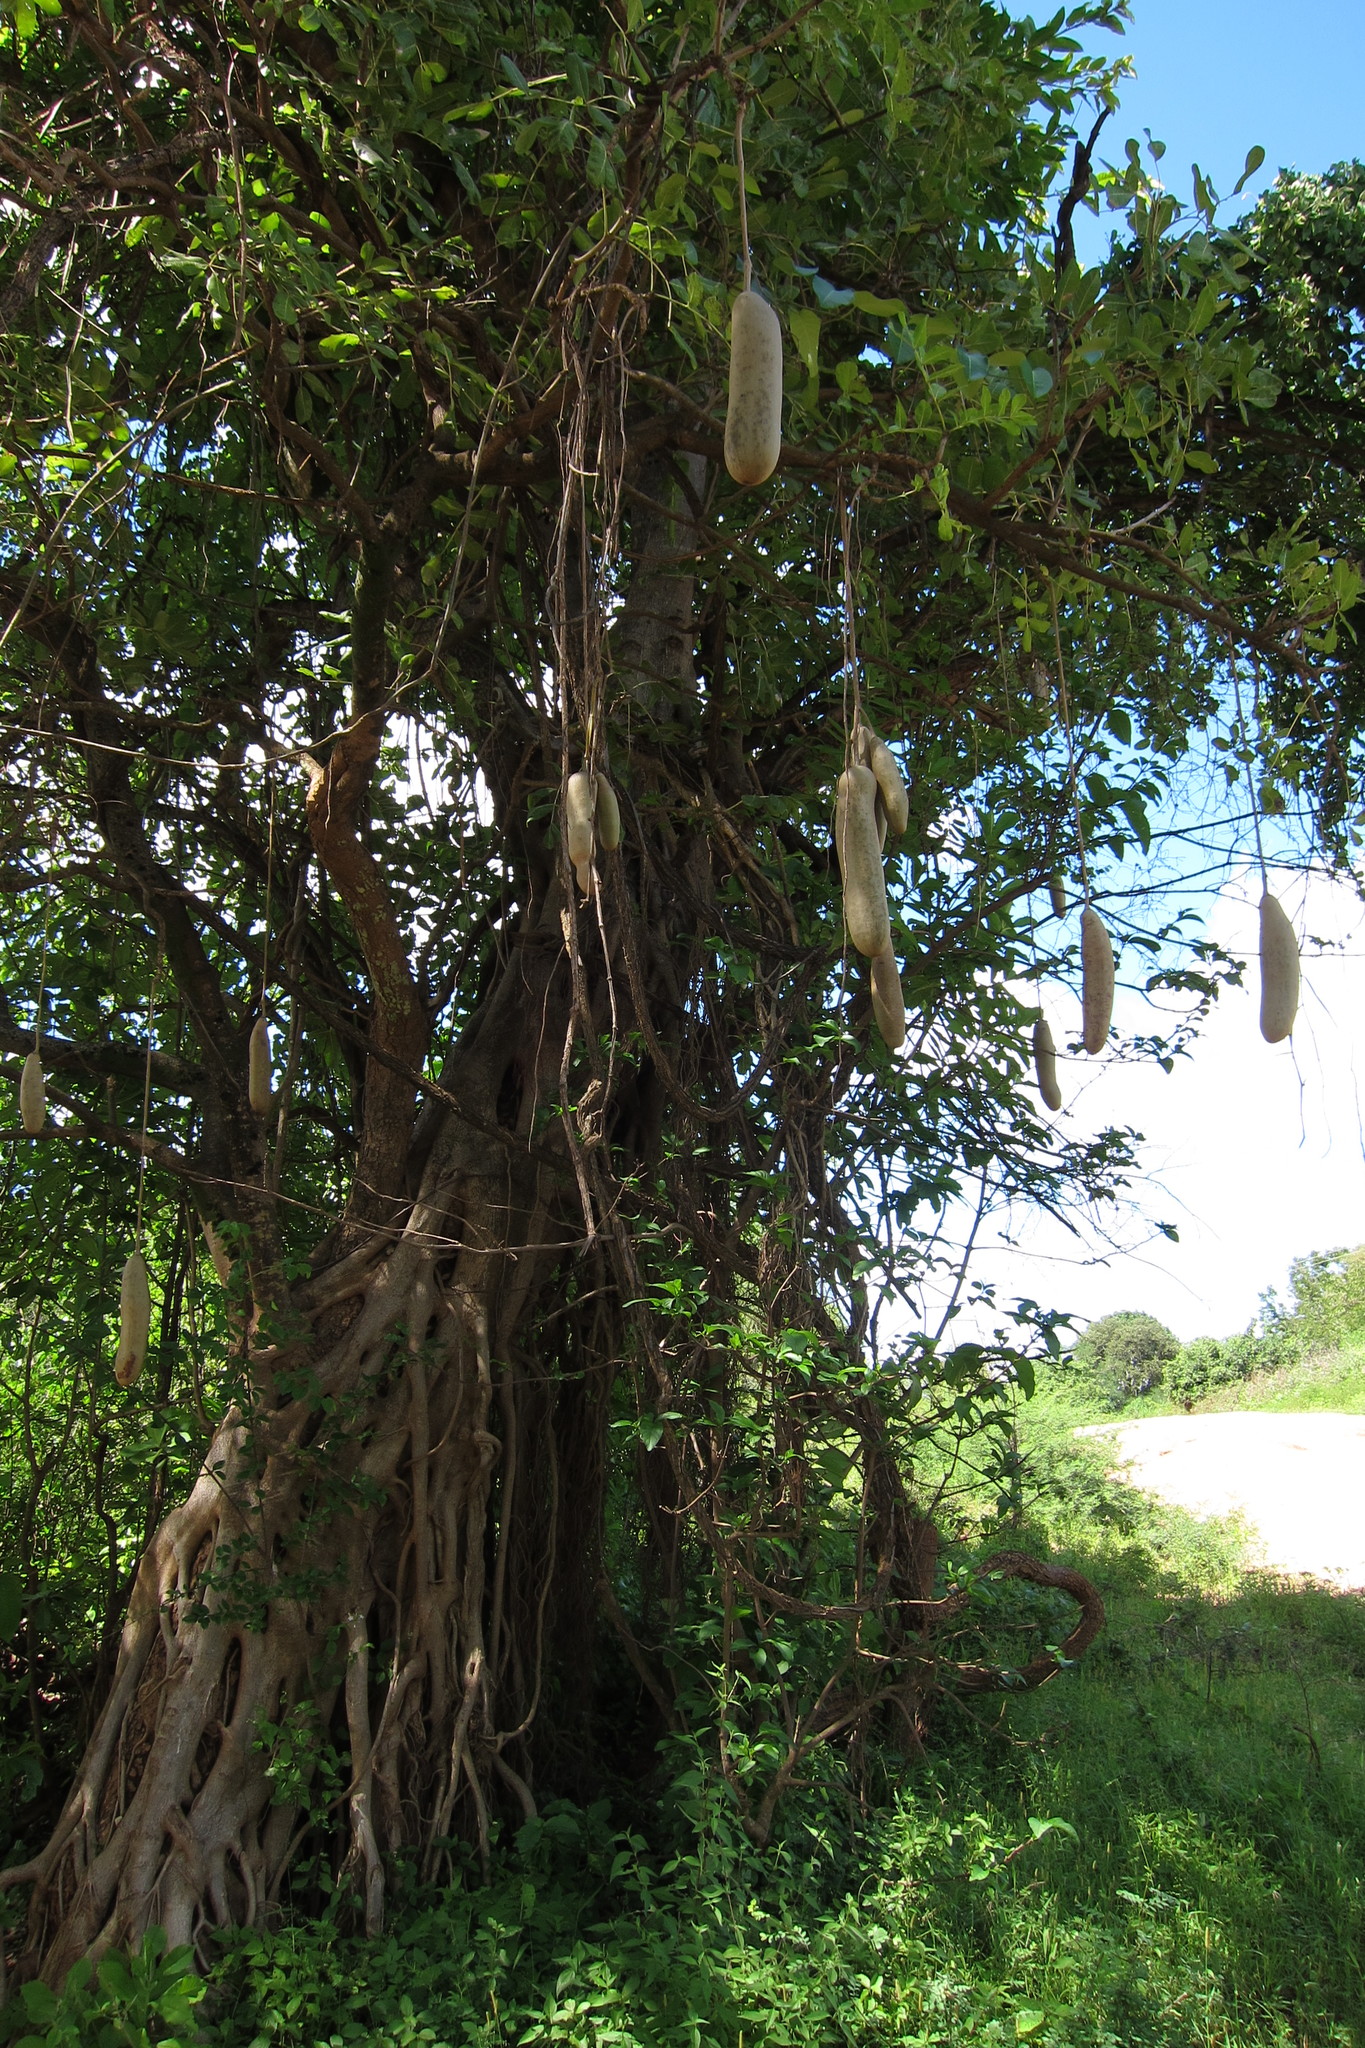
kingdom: Plantae
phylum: Tracheophyta
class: Magnoliopsida
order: Lamiales
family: Bignoniaceae
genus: Kigelia
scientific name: Kigelia africana
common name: Sausage tree
